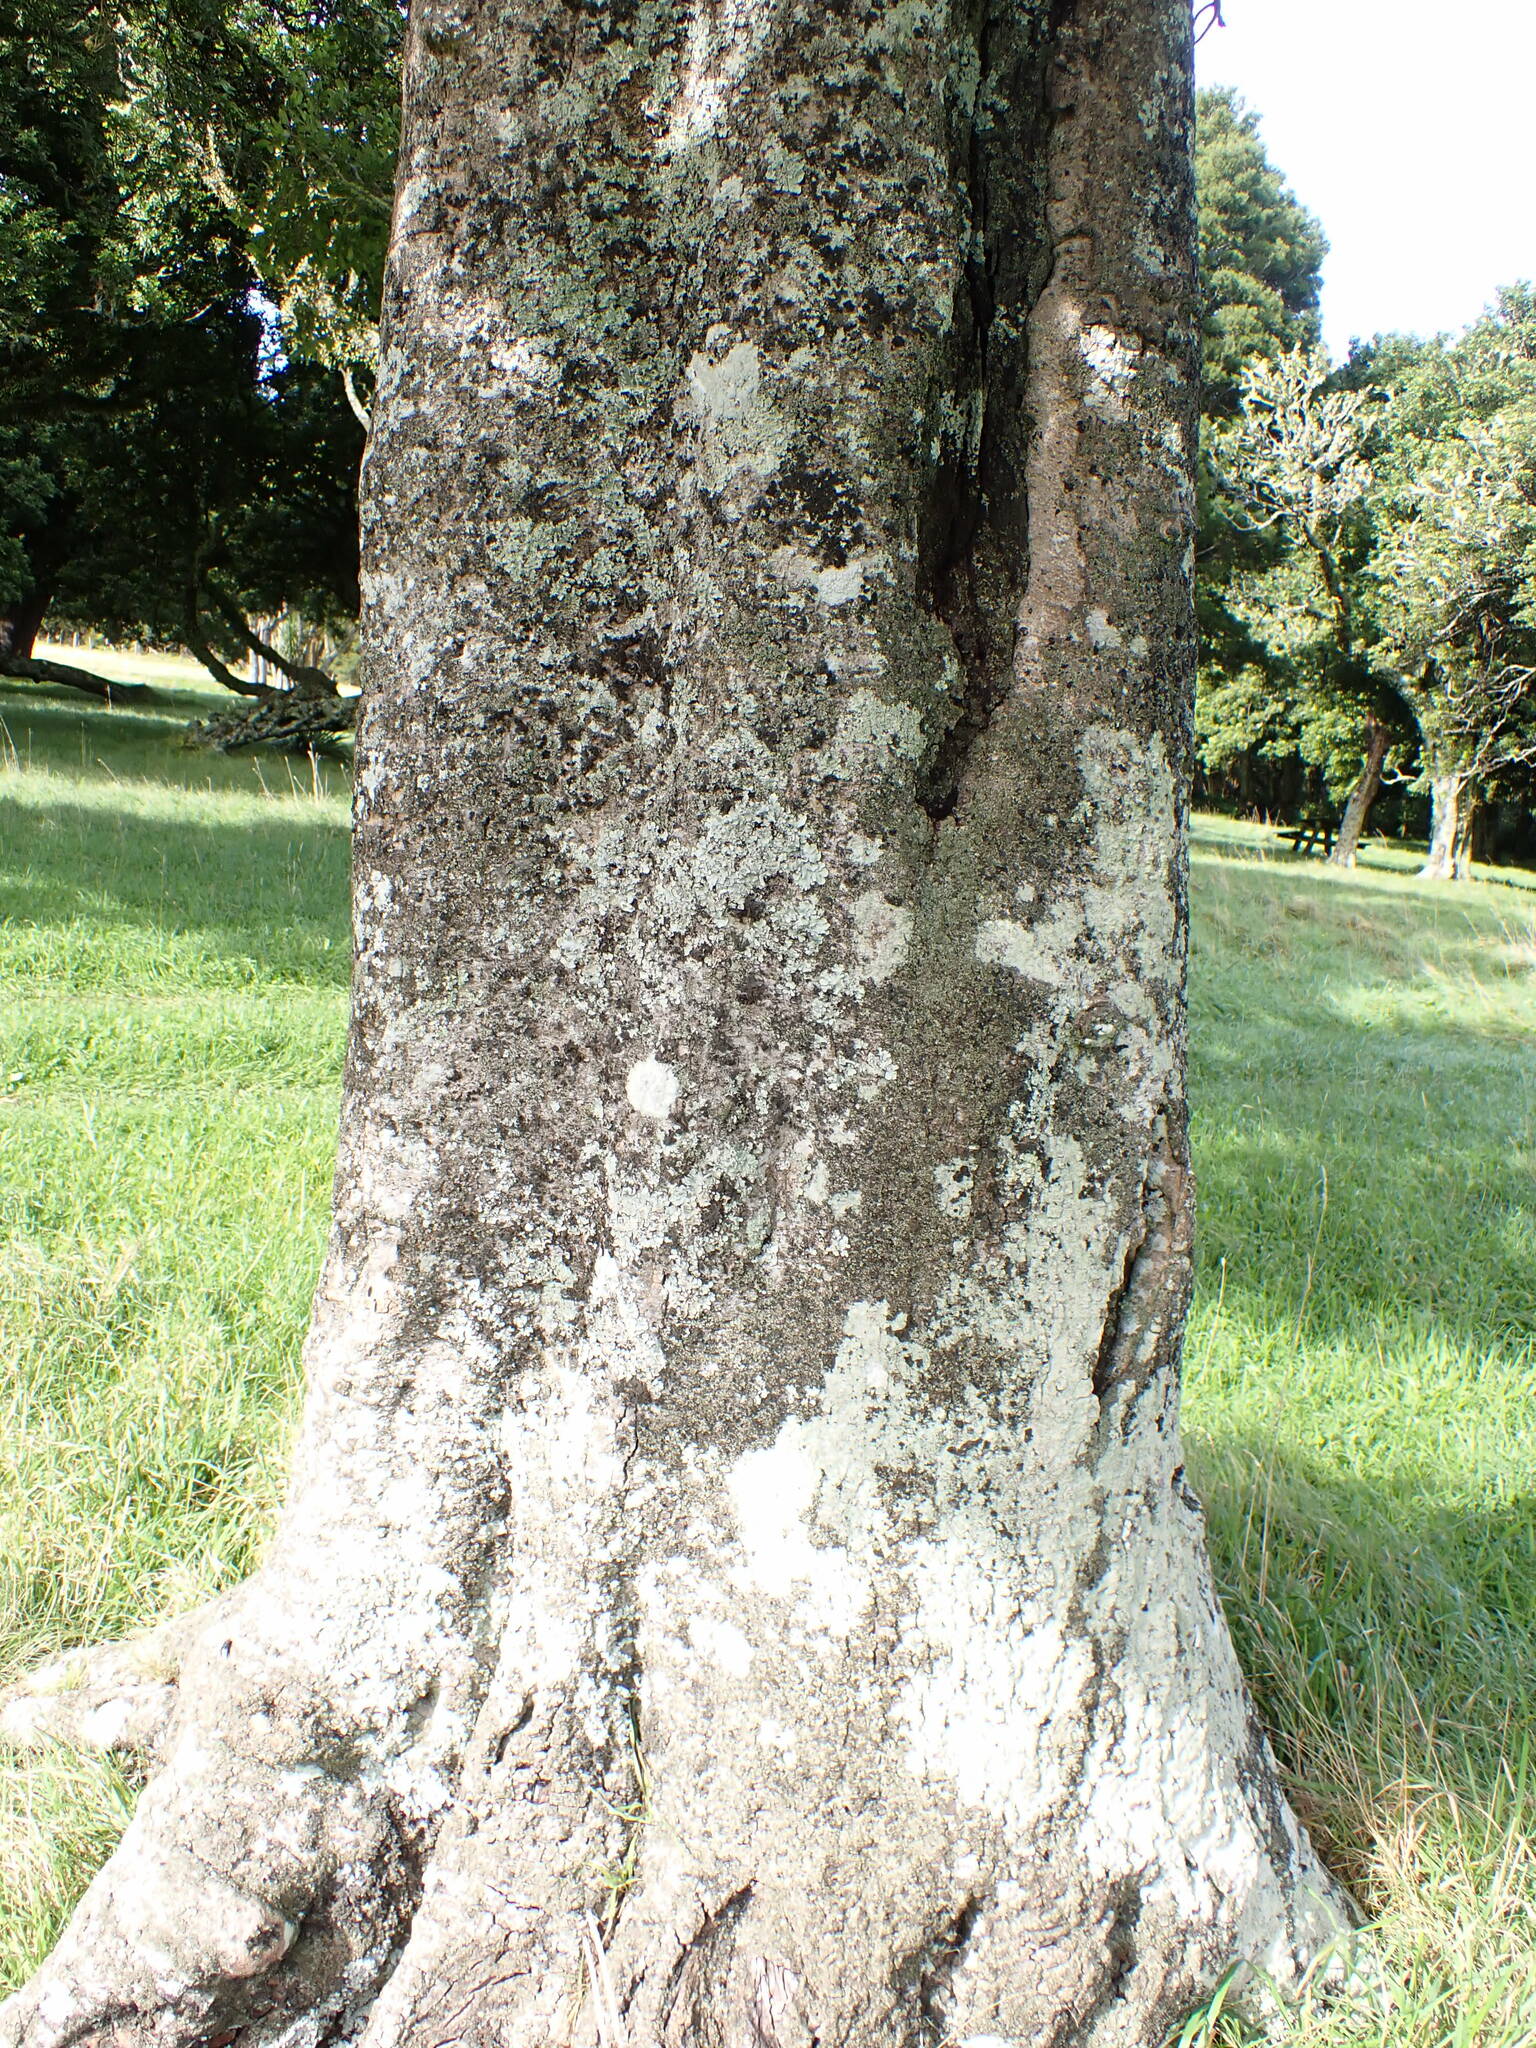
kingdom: Plantae
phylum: Tracheophyta
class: Magnoliopsida
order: Rosales
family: Moraceae
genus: Paratrophis
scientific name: Paratrophis banksii
